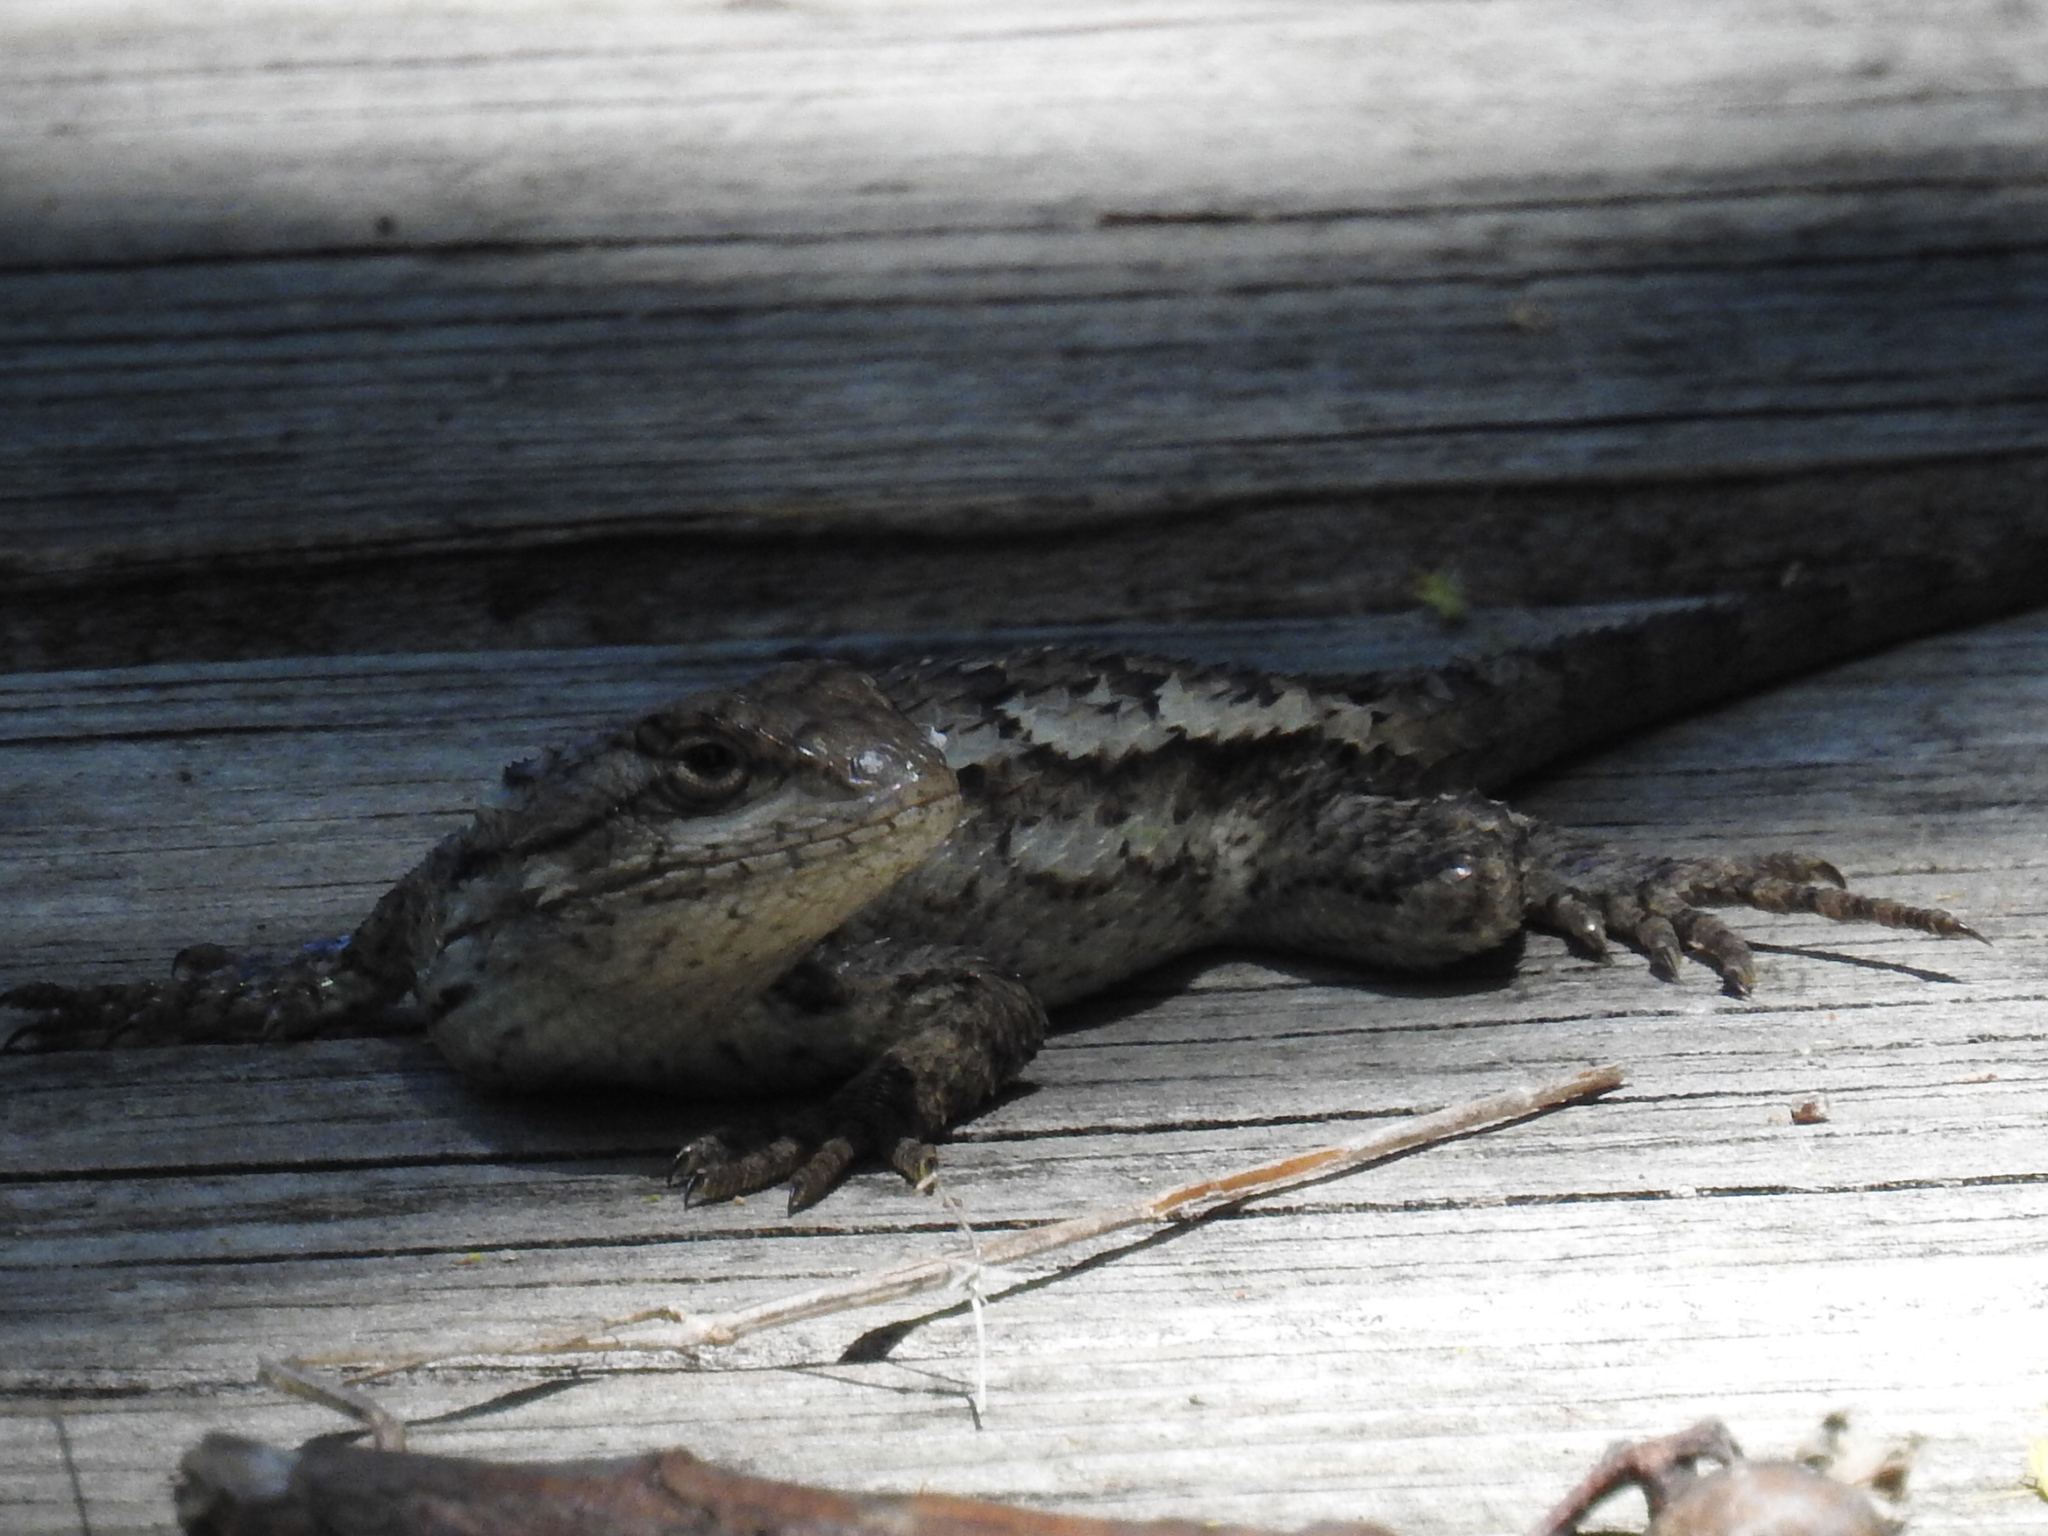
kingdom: Animalia
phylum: Chordata
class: Squamata
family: Phrynosomatidae
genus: Sceloporus
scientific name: Sceloporus olivaceus
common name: Texas spiny lizard
